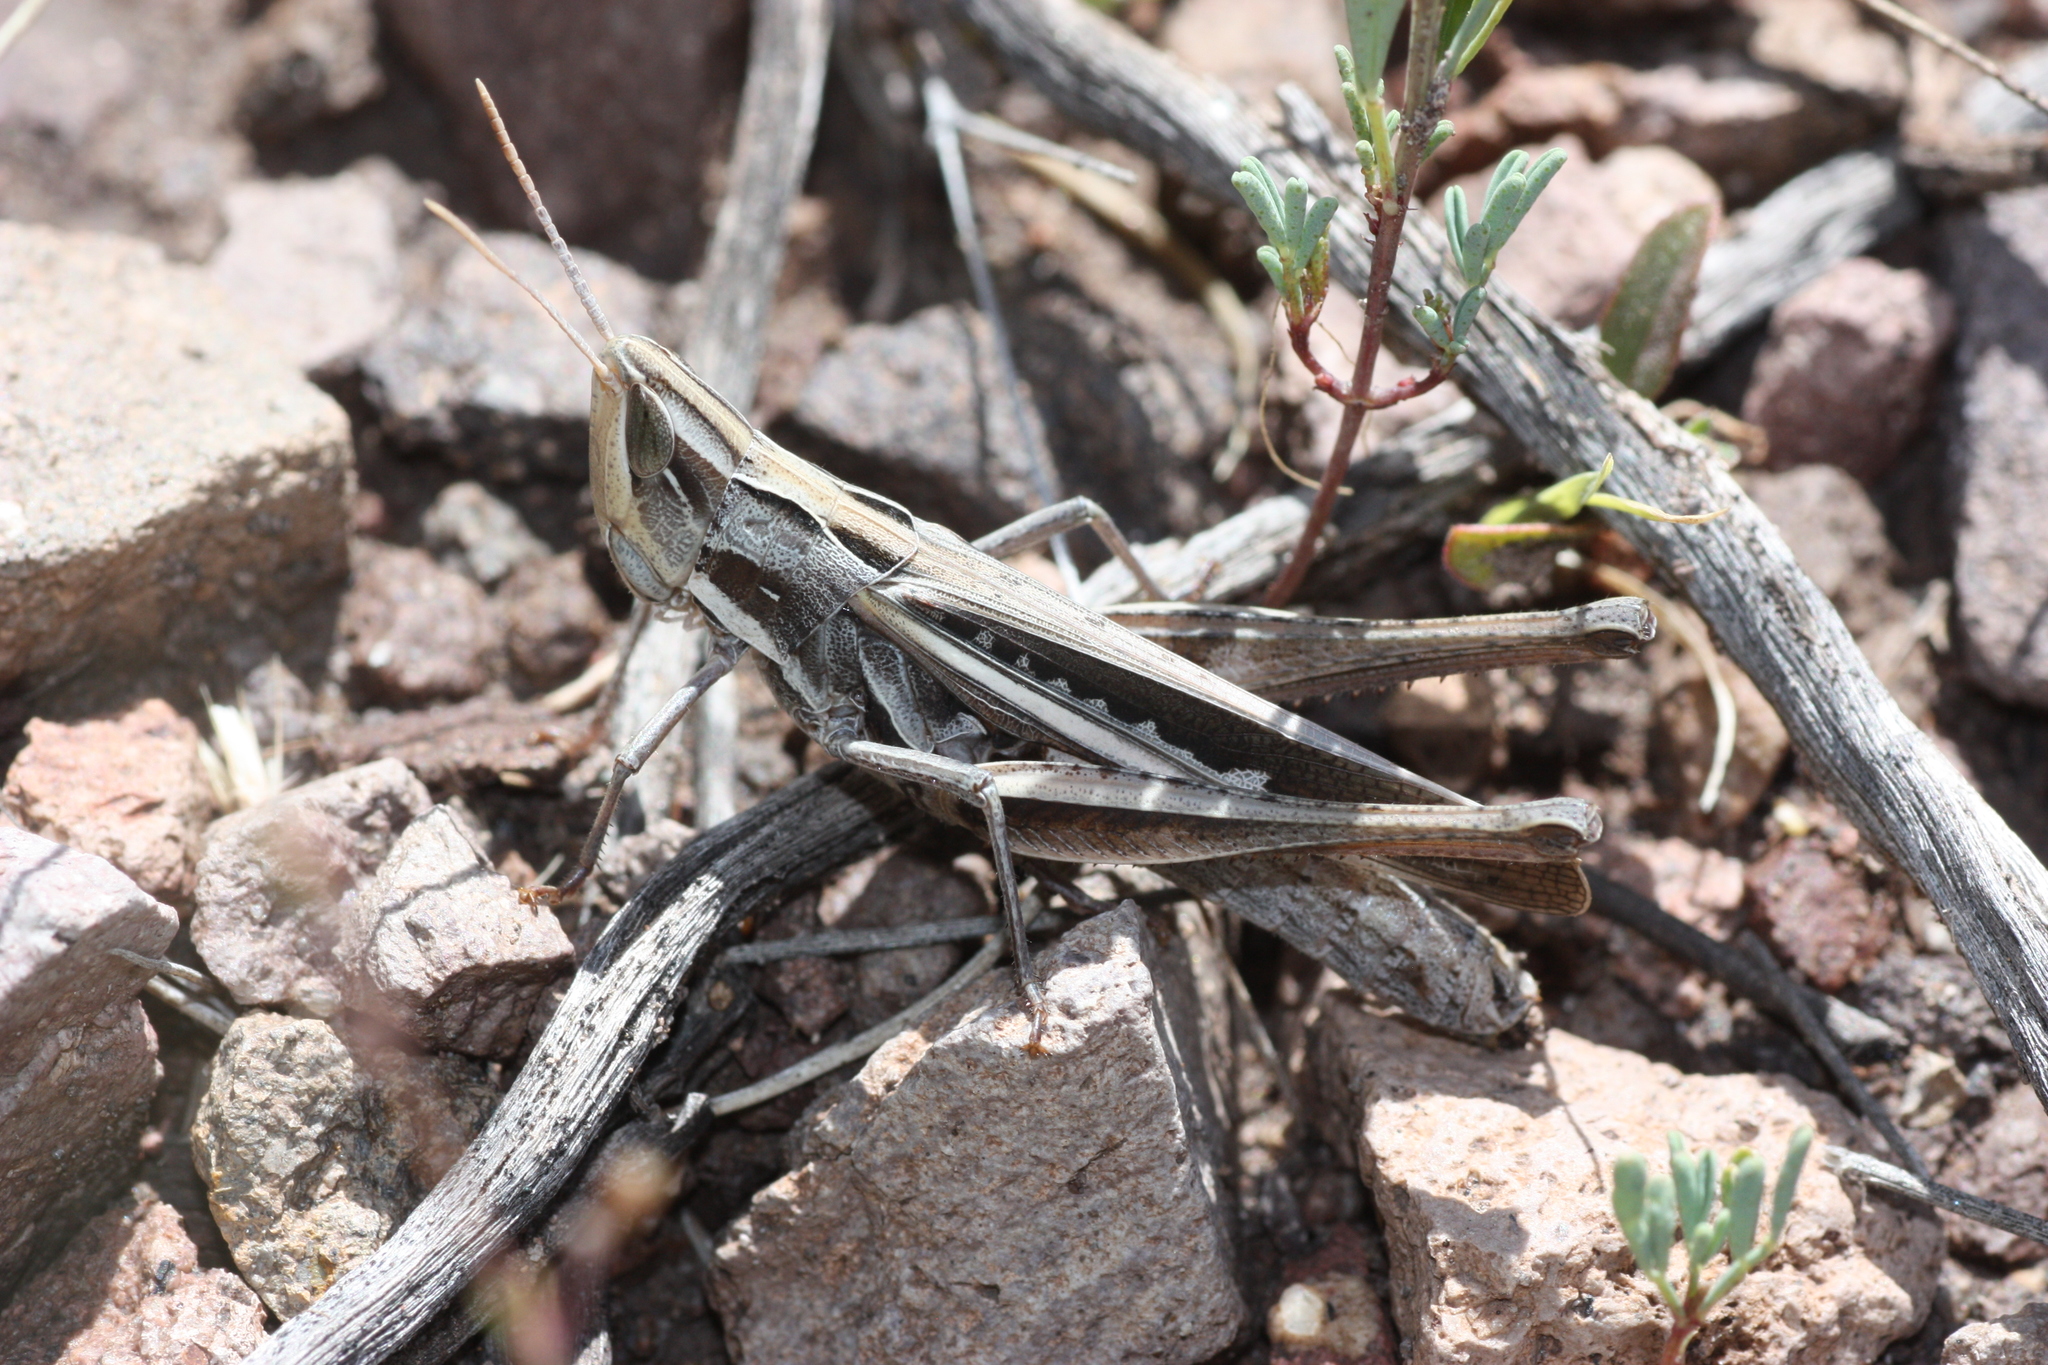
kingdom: Animalia
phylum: Arthropoda
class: Insecta
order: Orthoptera
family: Acrididae
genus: Syrbula
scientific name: Syrbula montezuma
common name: Montezuma's grasshopper
